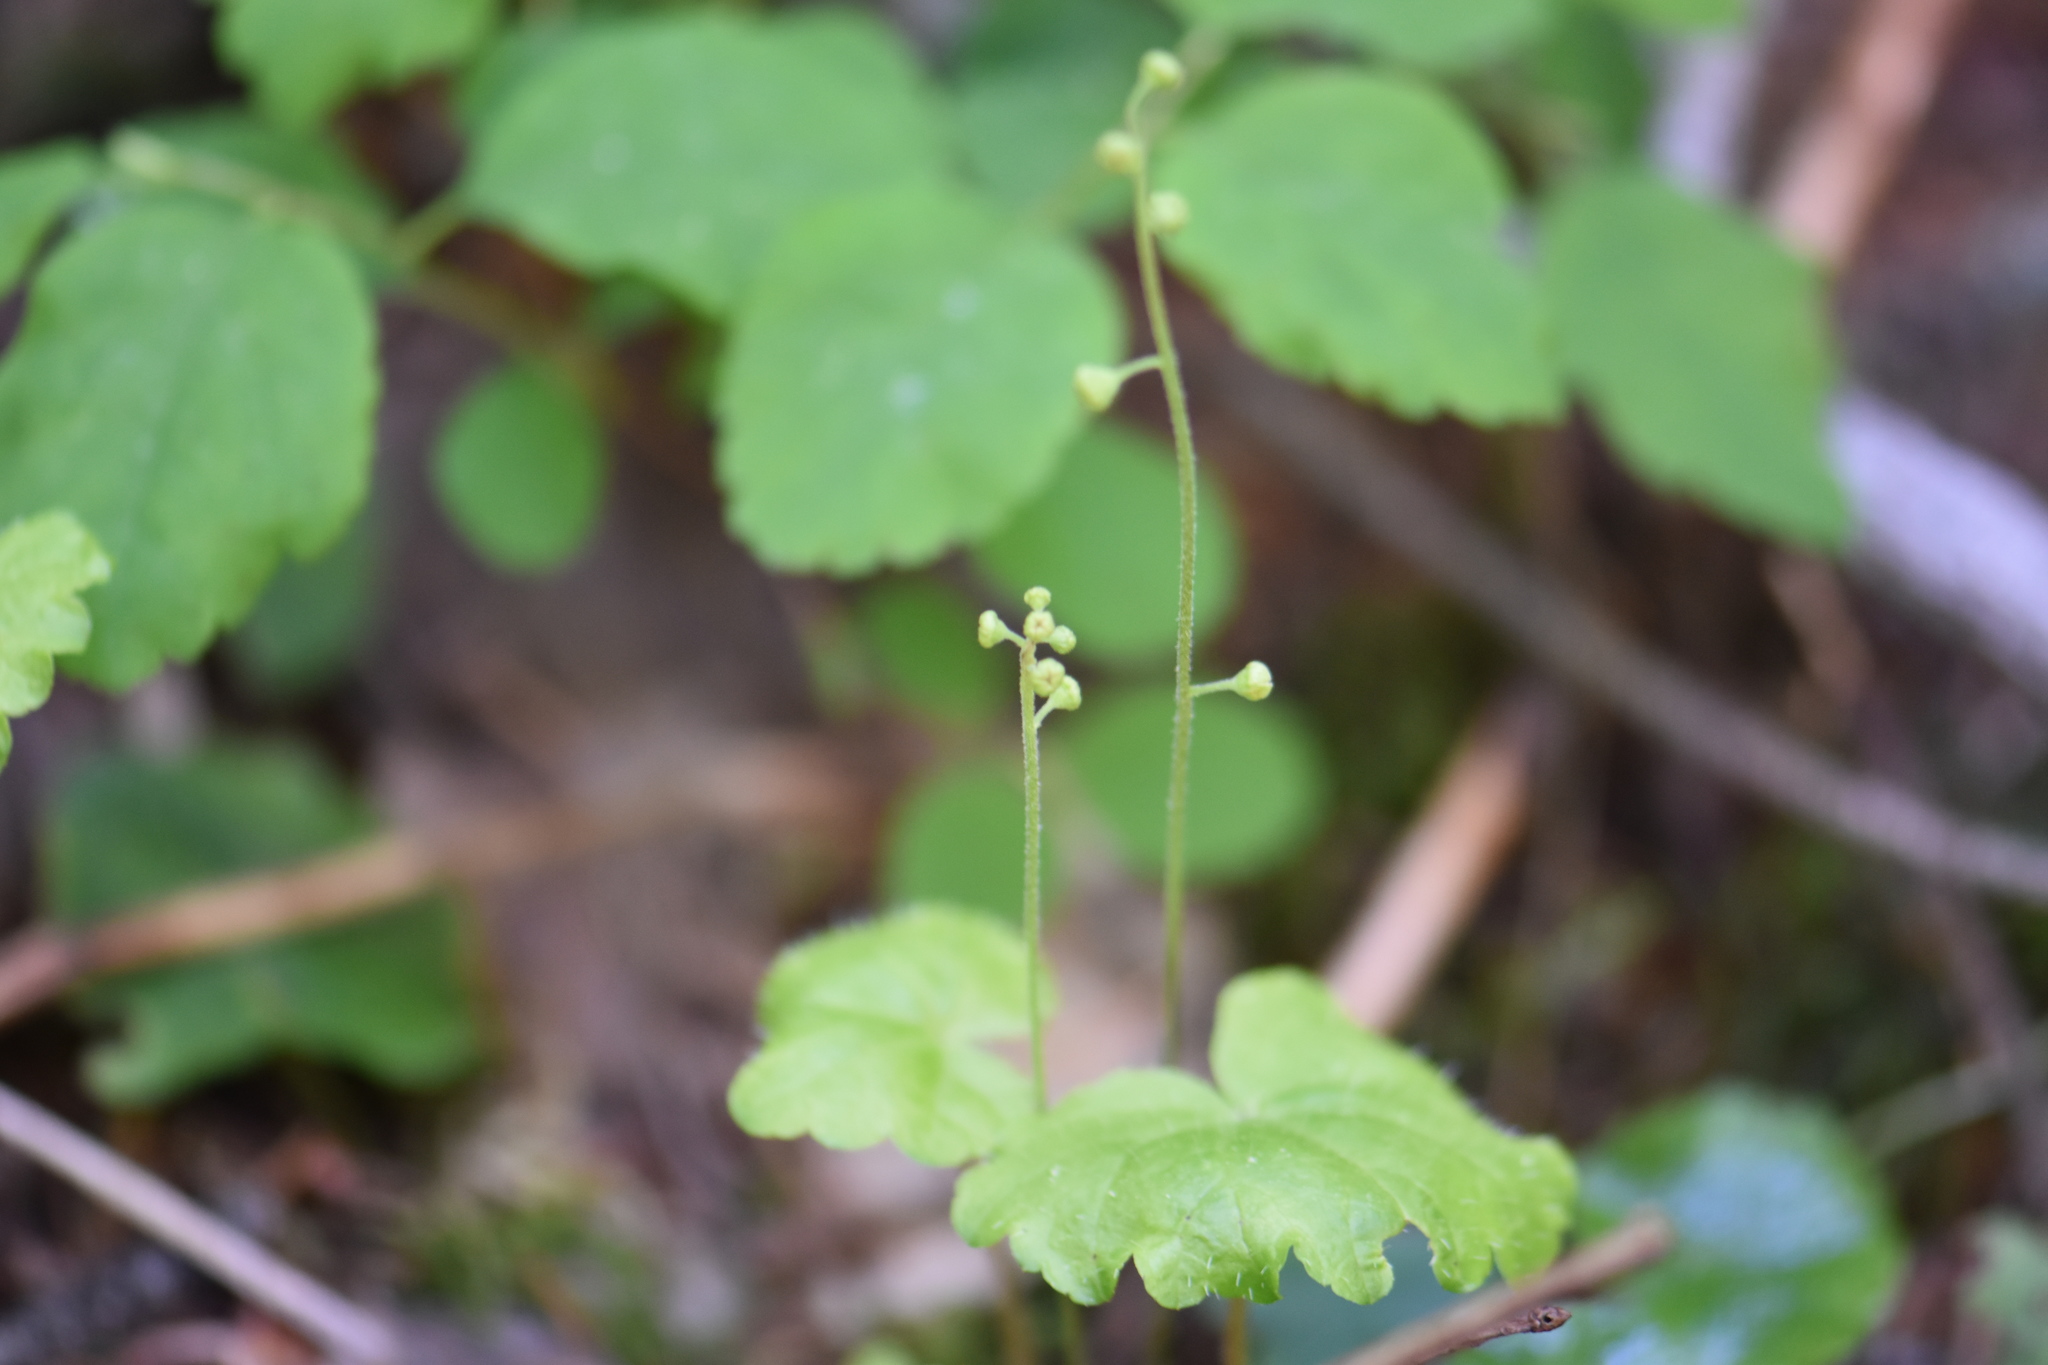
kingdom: Plantae
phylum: Tracheophyta
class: Magnoliopsida
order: Saxifragales
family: Saxifragaceae
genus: Mitella
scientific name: Mitella nuda
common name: Bare-stemmed bishop's-cap
